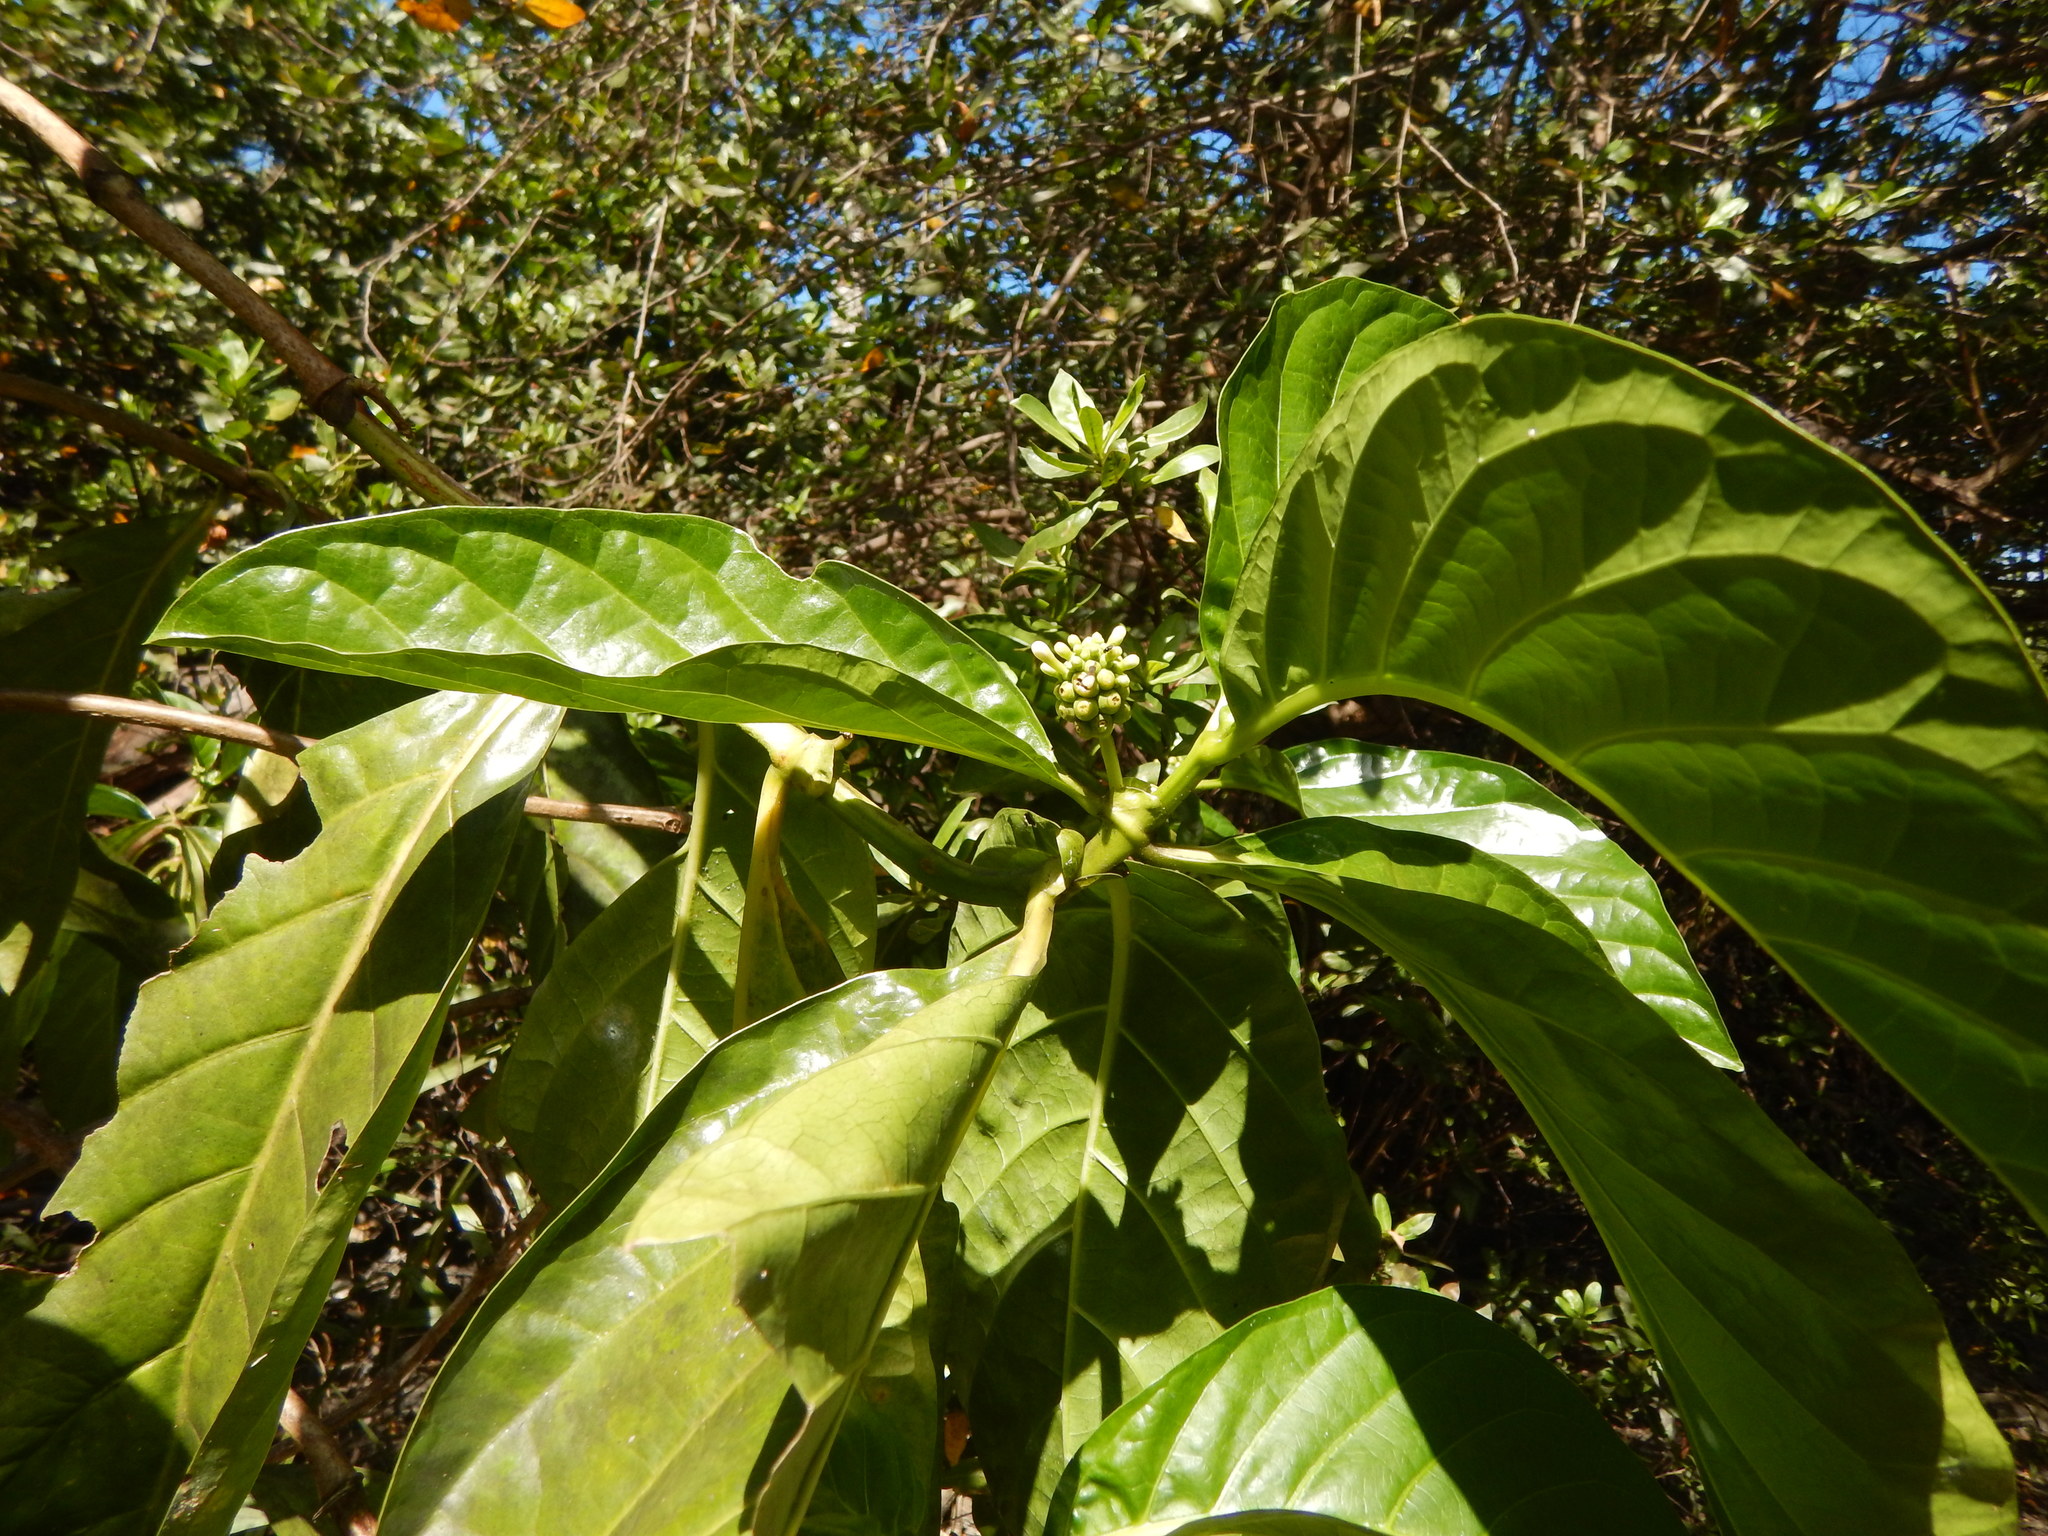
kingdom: Plantae
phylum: Tracheophyta
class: Magnoliopsida
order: Gentianales
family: Rubiaceae
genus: Morinda
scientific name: Morinda citrifolia
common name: Indian-mulberry
